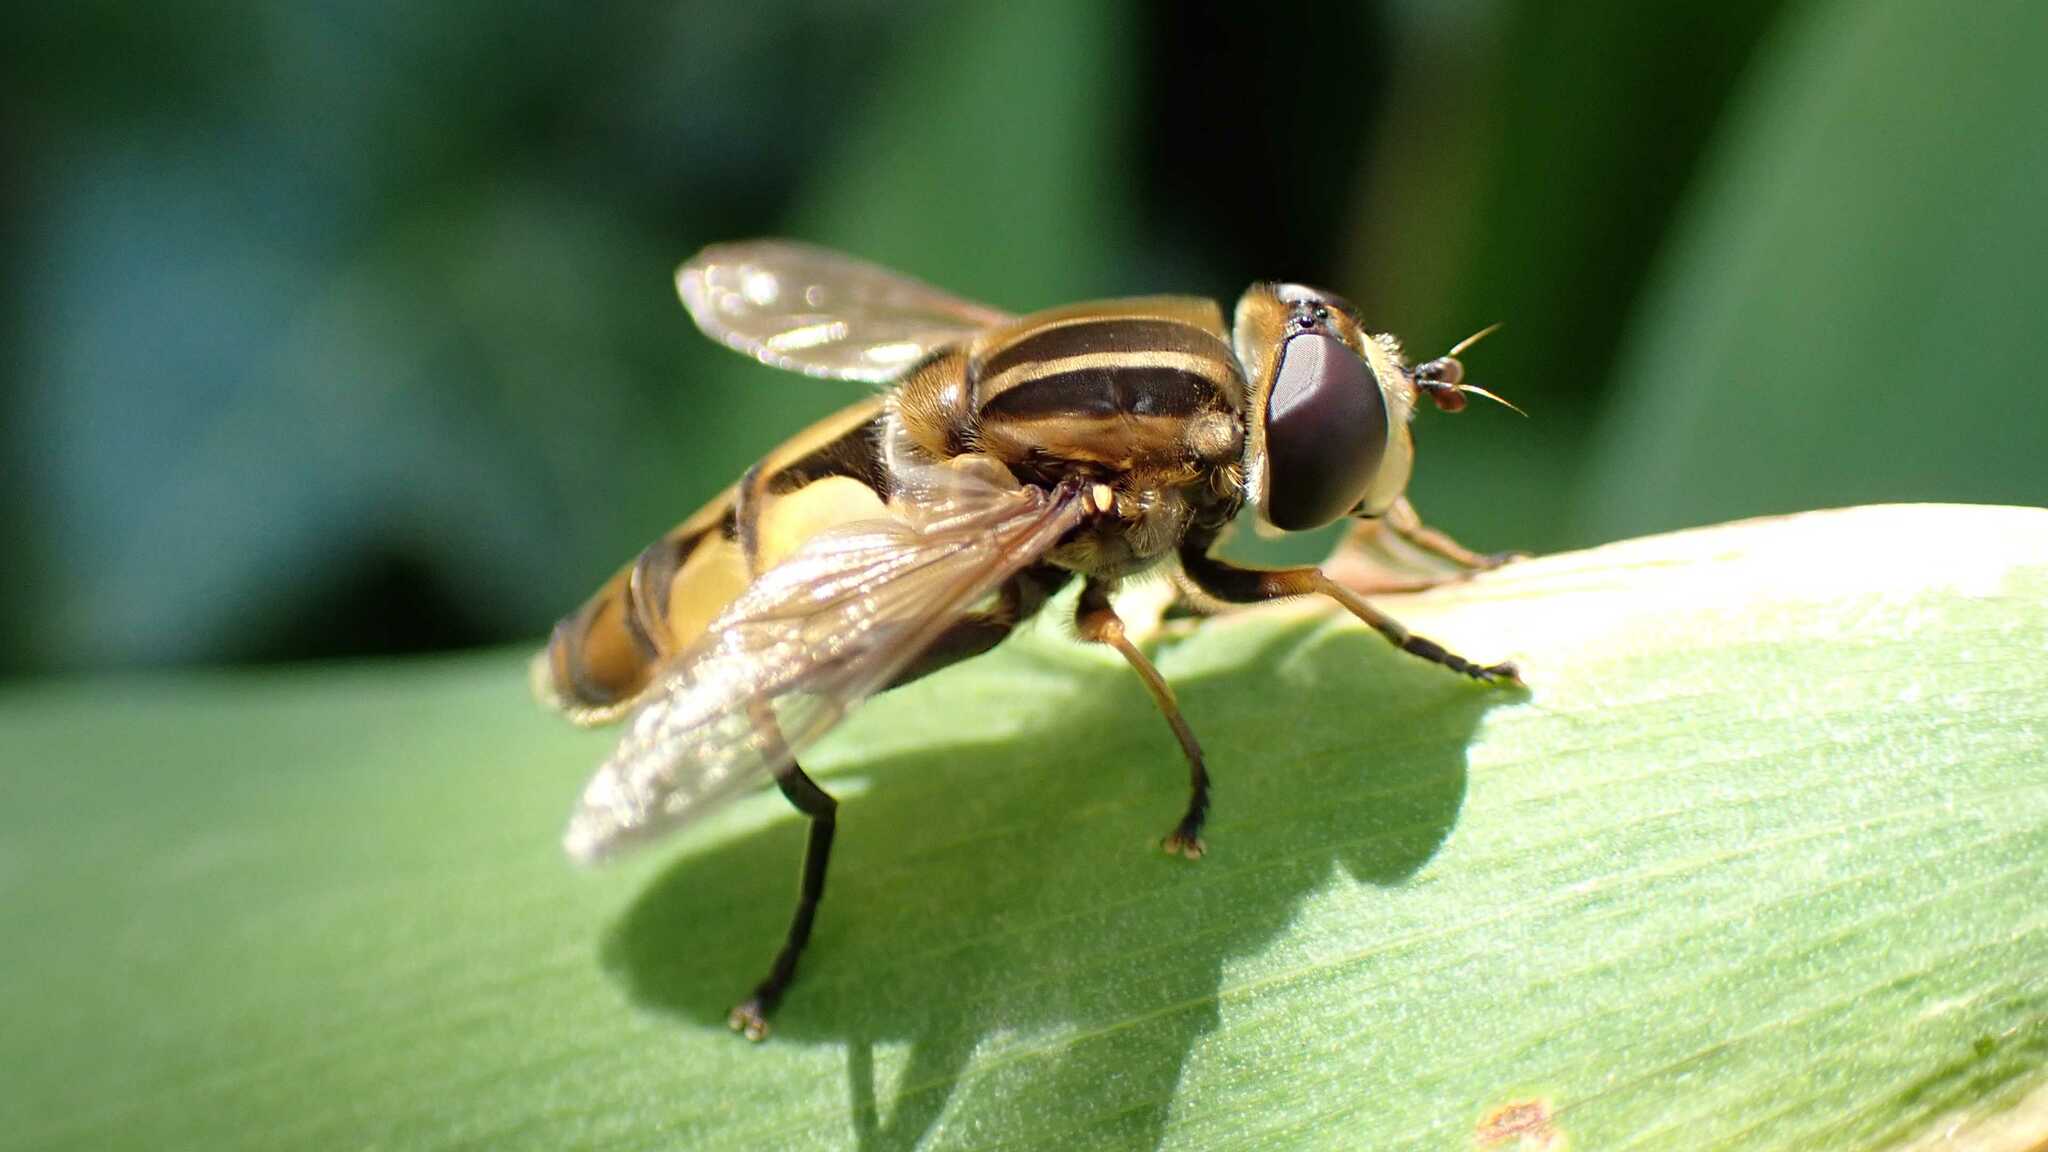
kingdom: Animalia
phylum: Arthropoda
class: Insecta
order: Diptera
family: Syrphidae
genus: Helophilus
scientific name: Helophilus hybridus
